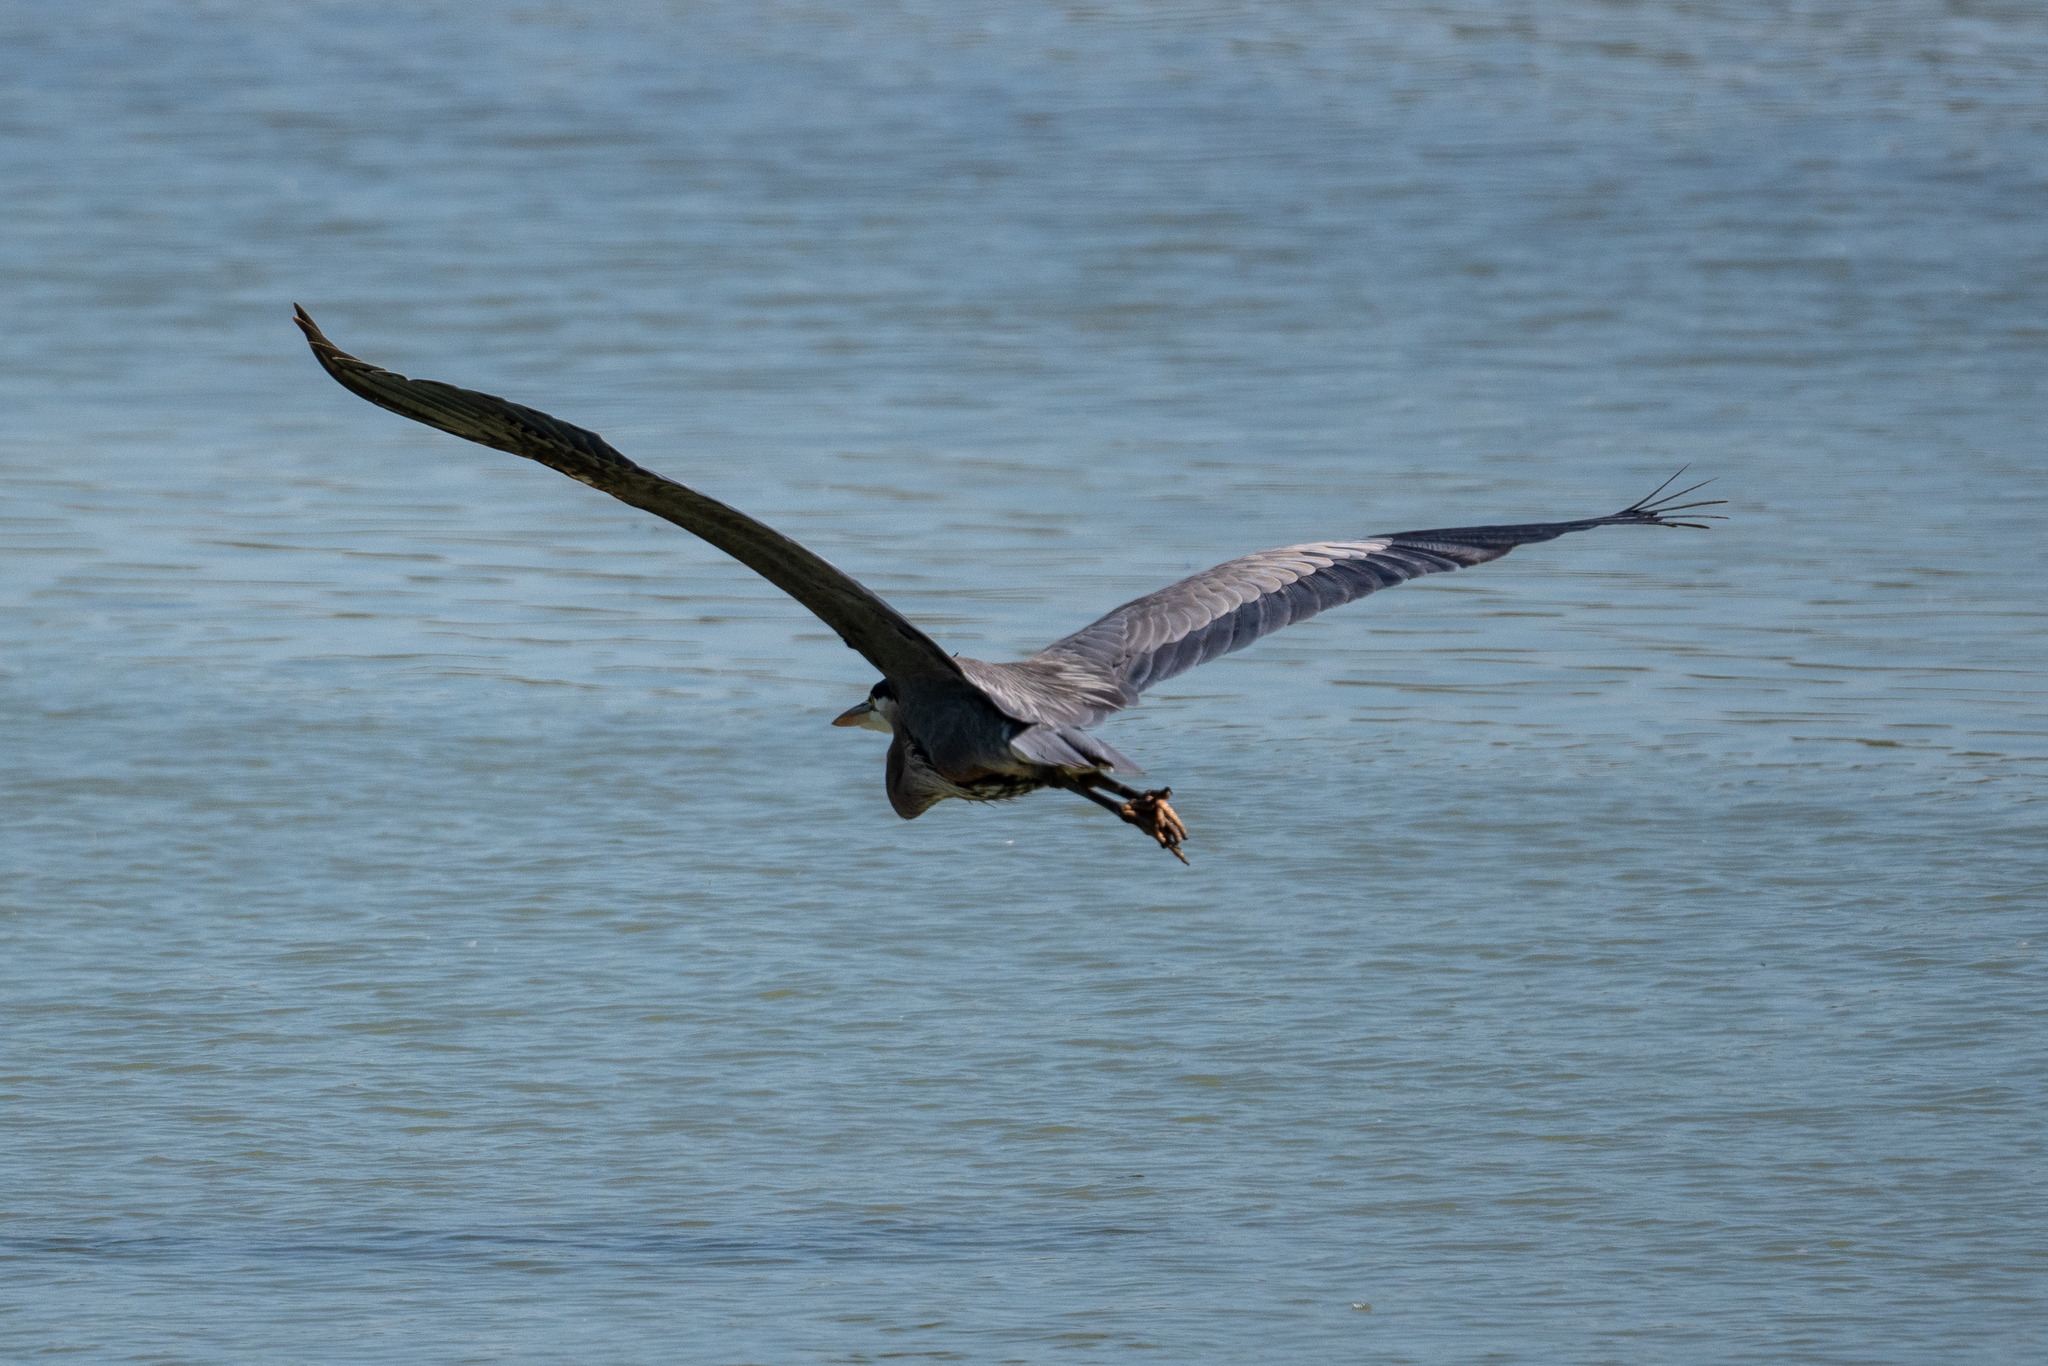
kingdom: Animalia
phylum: Chordata
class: Aves
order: Pelecaniformes
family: Ardeidae
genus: Ardea
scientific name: Ardea herodias
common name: Great blue heron
